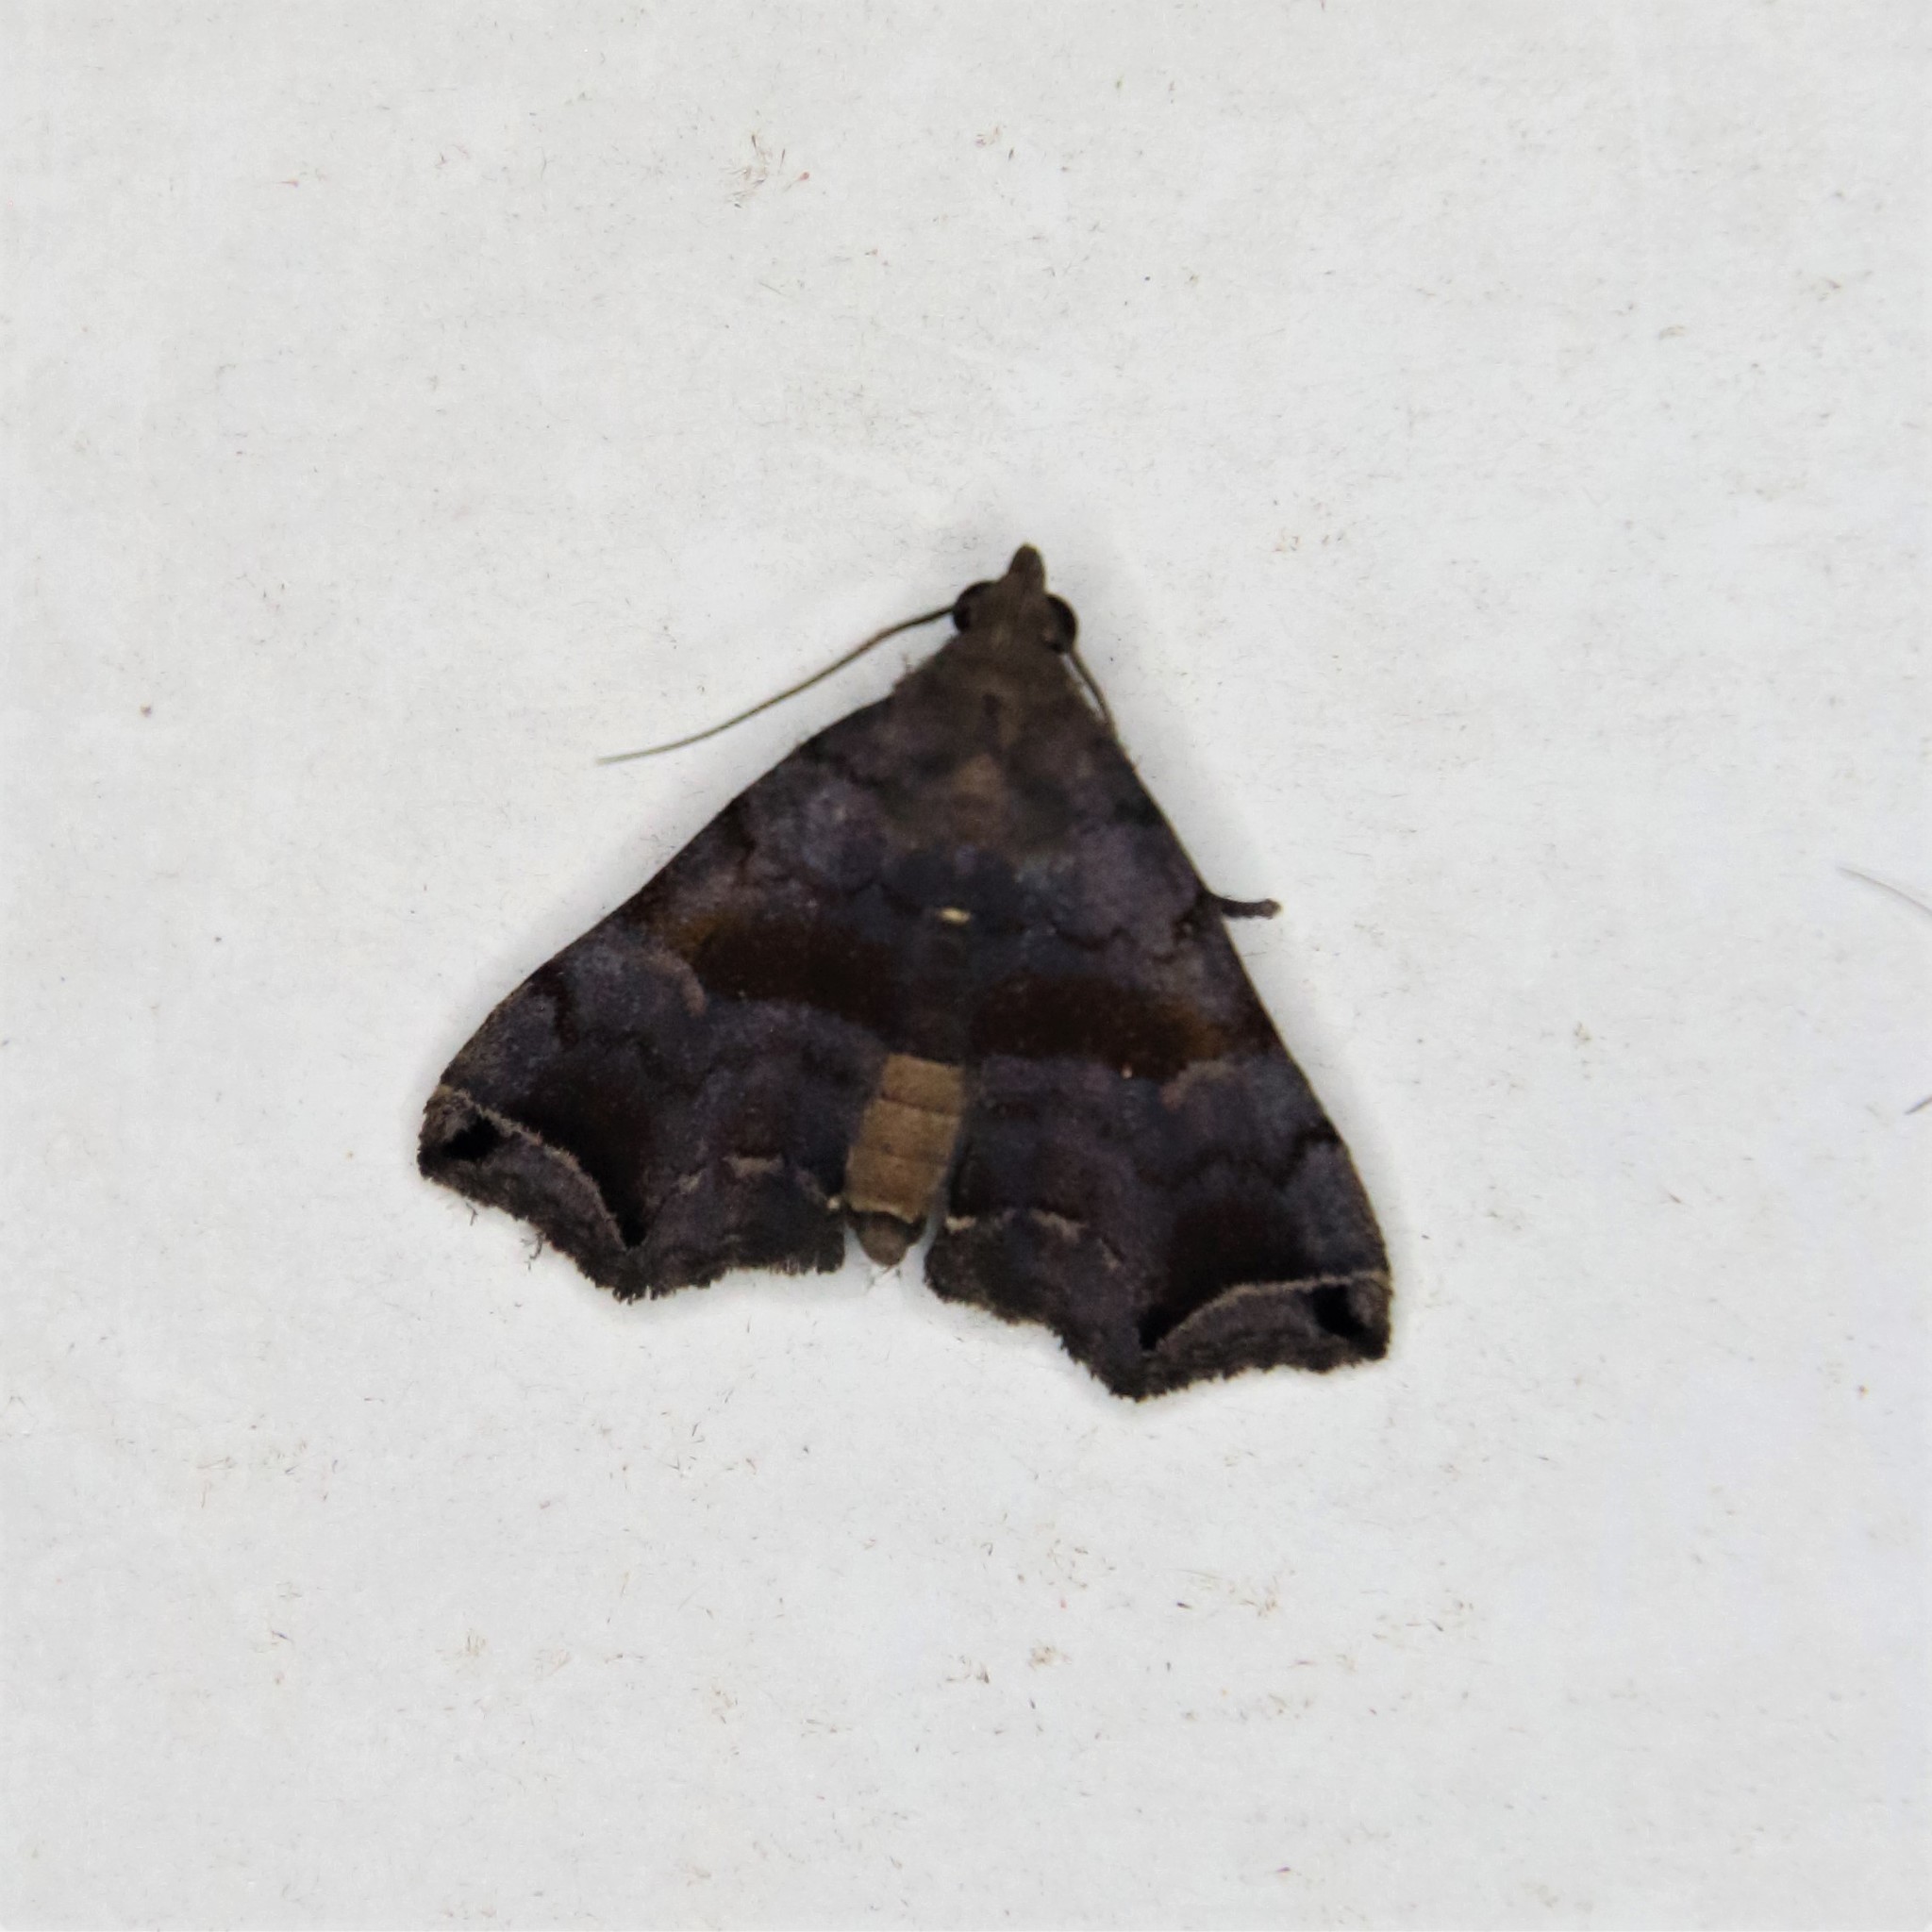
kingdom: Animalia
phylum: Arthropoda
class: Insecta
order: Lepidoptera
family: Erebidae
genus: Polypogon
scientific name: Polypogon biasalis
